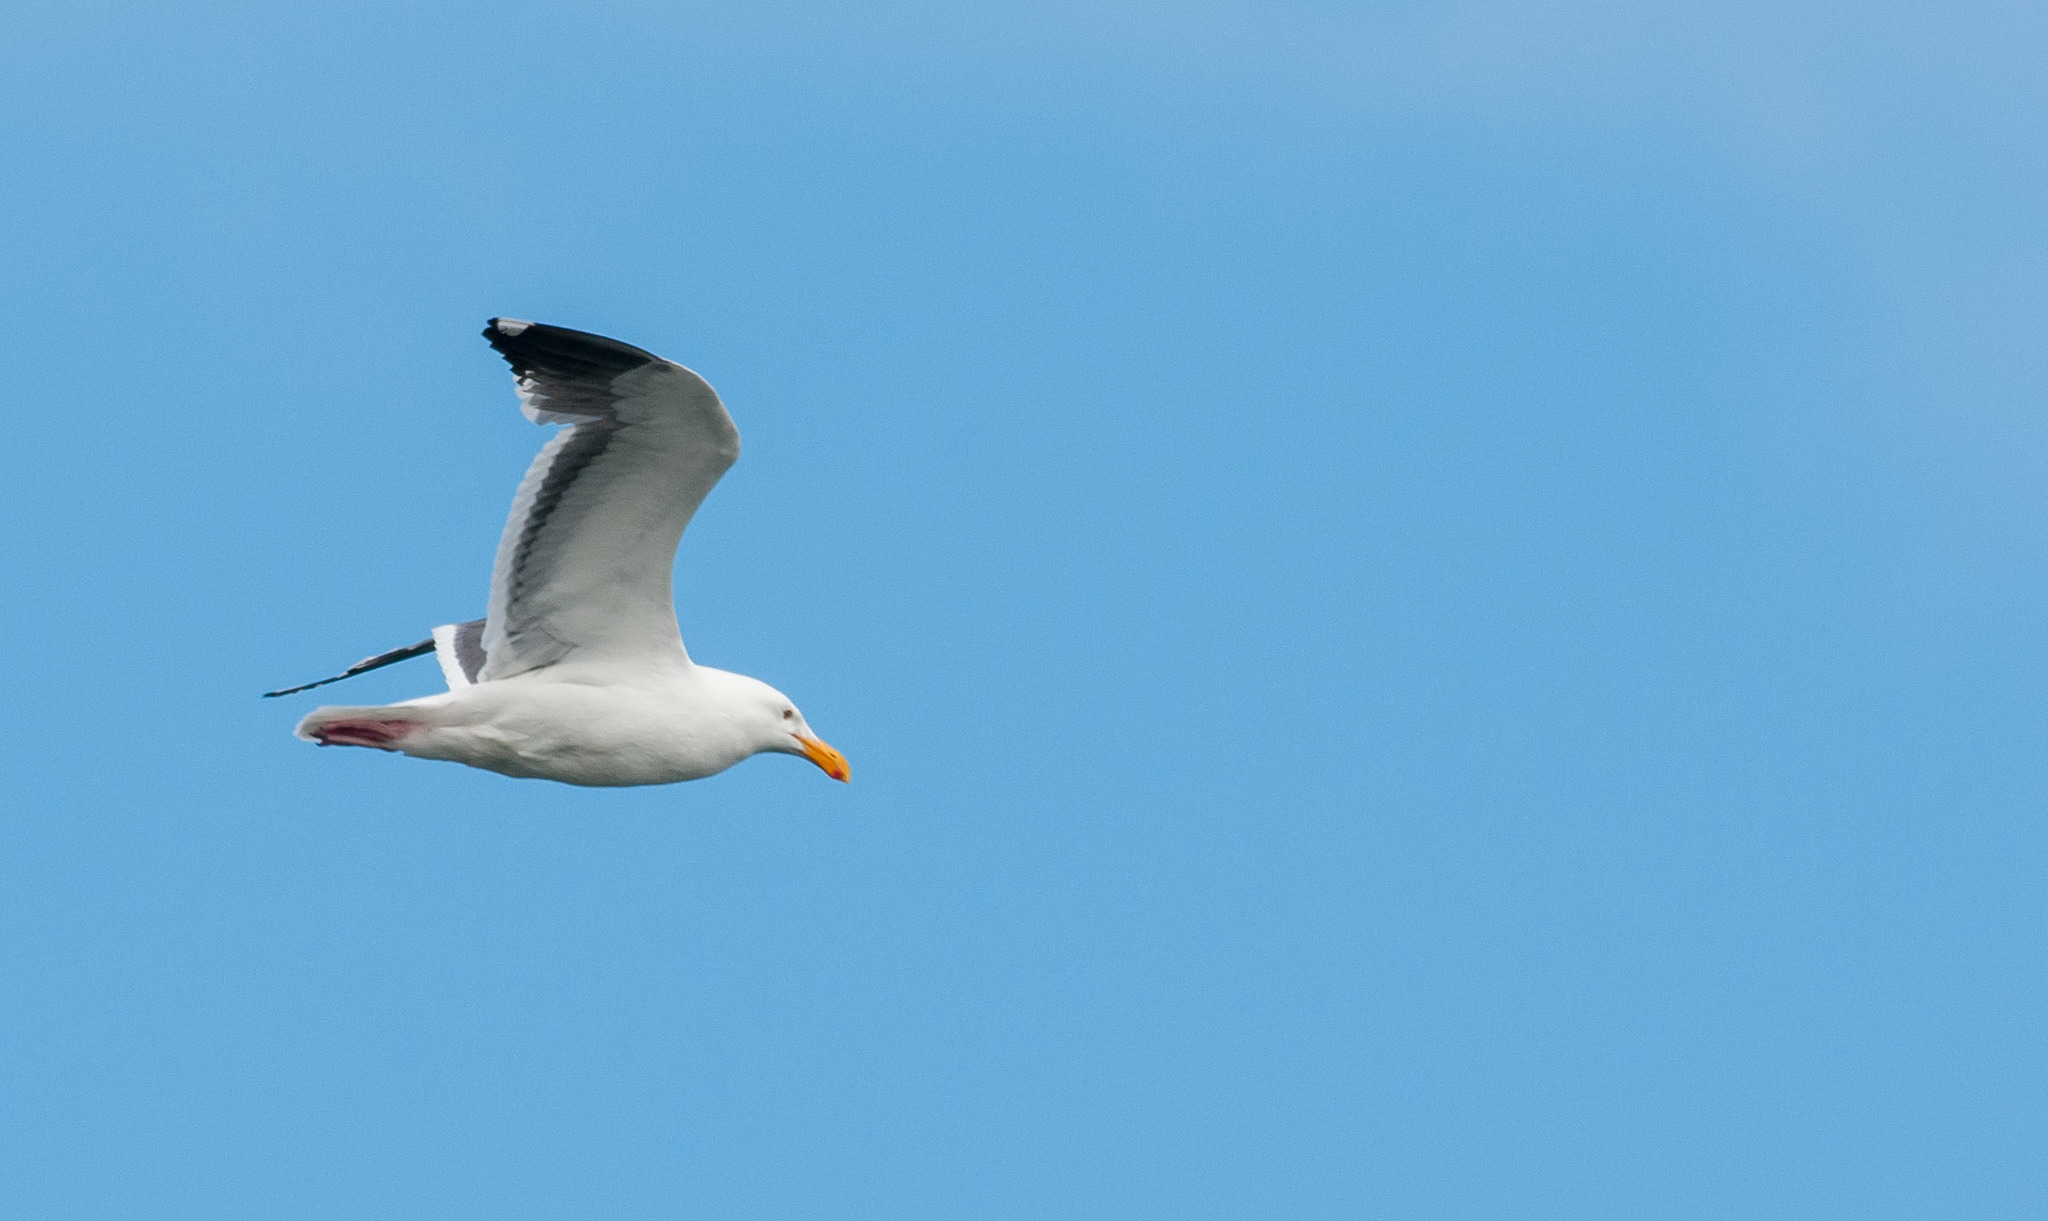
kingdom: Animalia
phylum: Chordata
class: Aves
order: Charadriiformes
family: Laridae
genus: Larus
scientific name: Larus occidentalis
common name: Western gull
